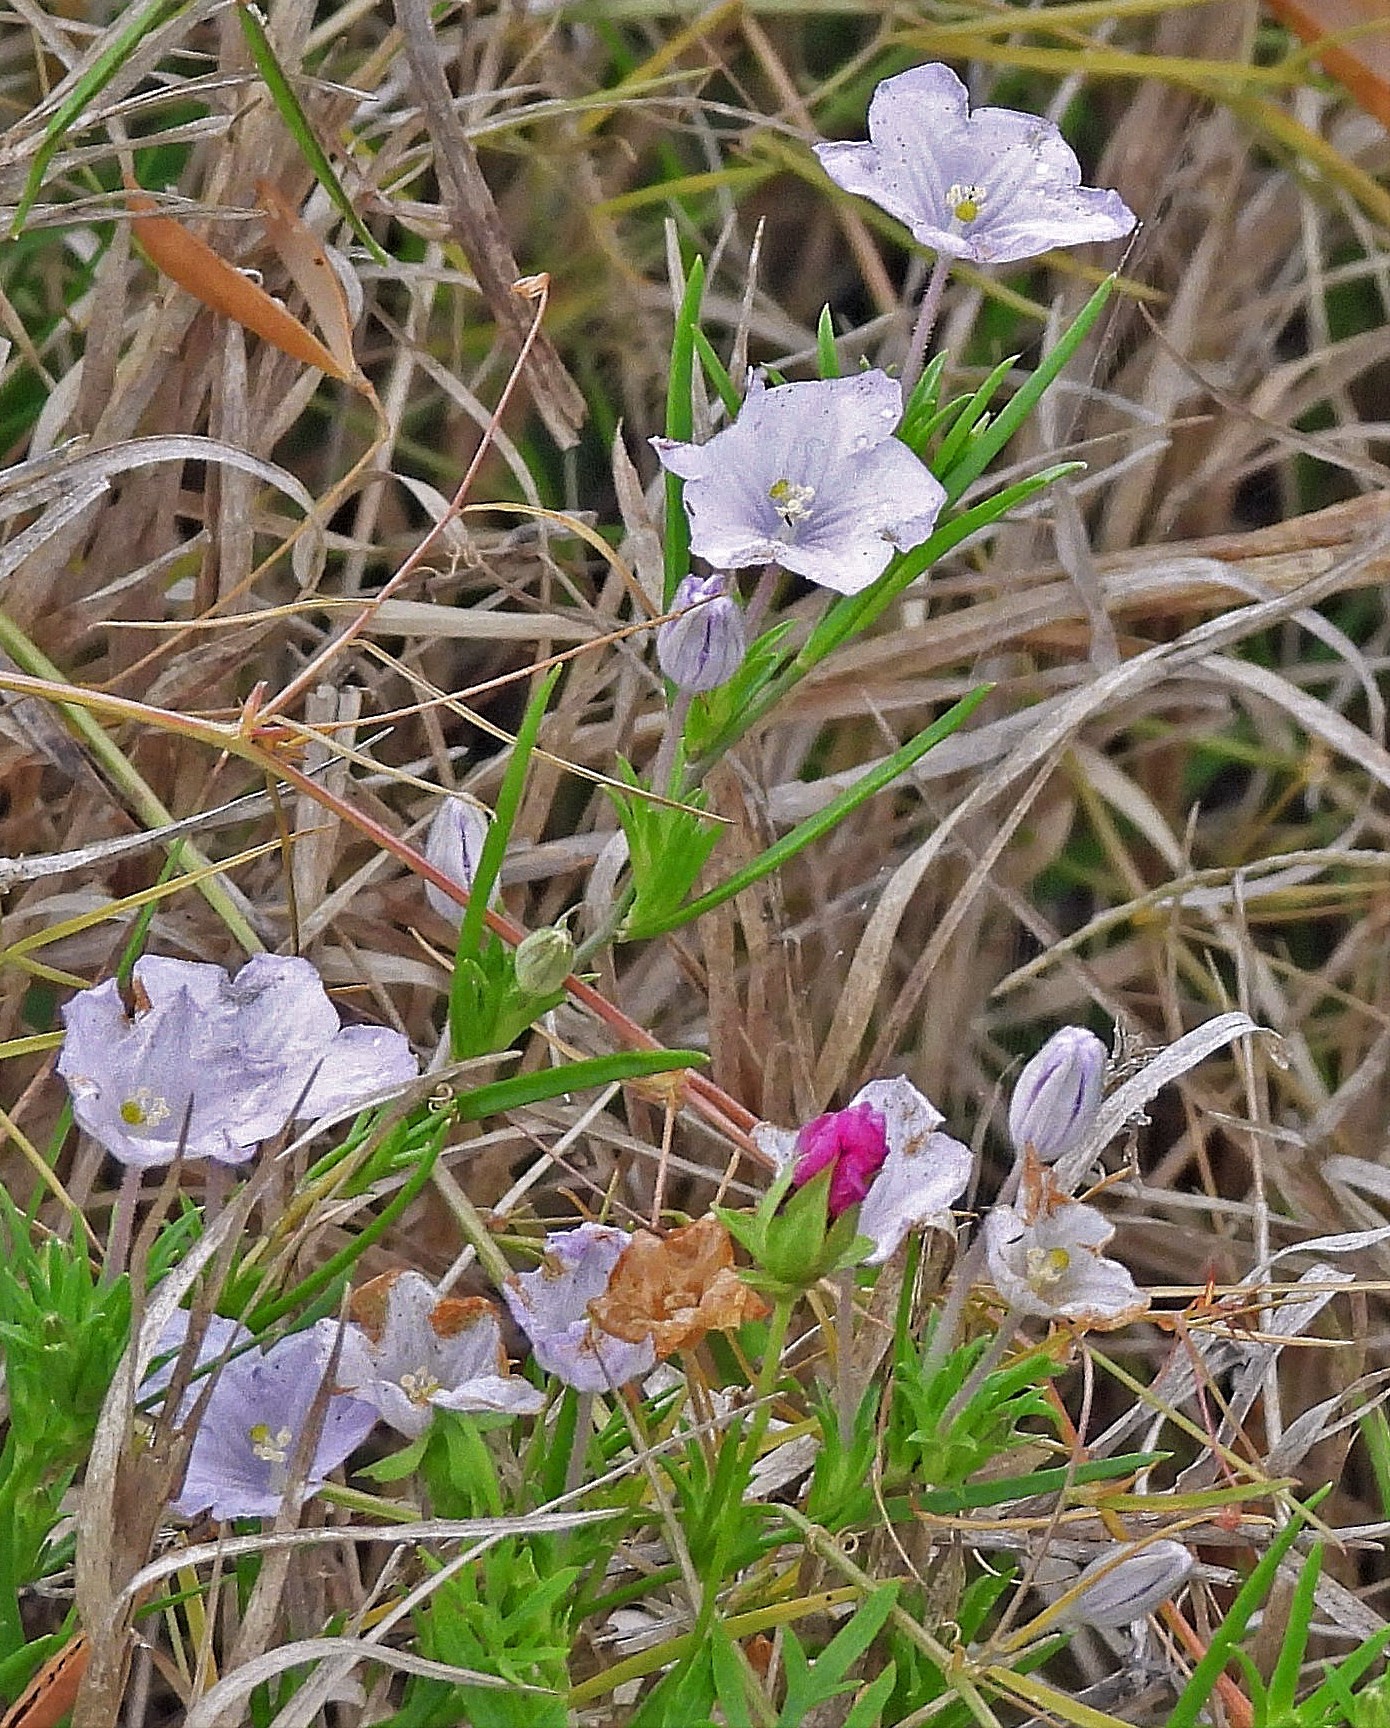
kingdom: Plantae
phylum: Tracheophyta
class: Magnoliopsida
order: Solanales
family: Solanaceae
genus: Nierembergia
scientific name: Nierembergia aristata
